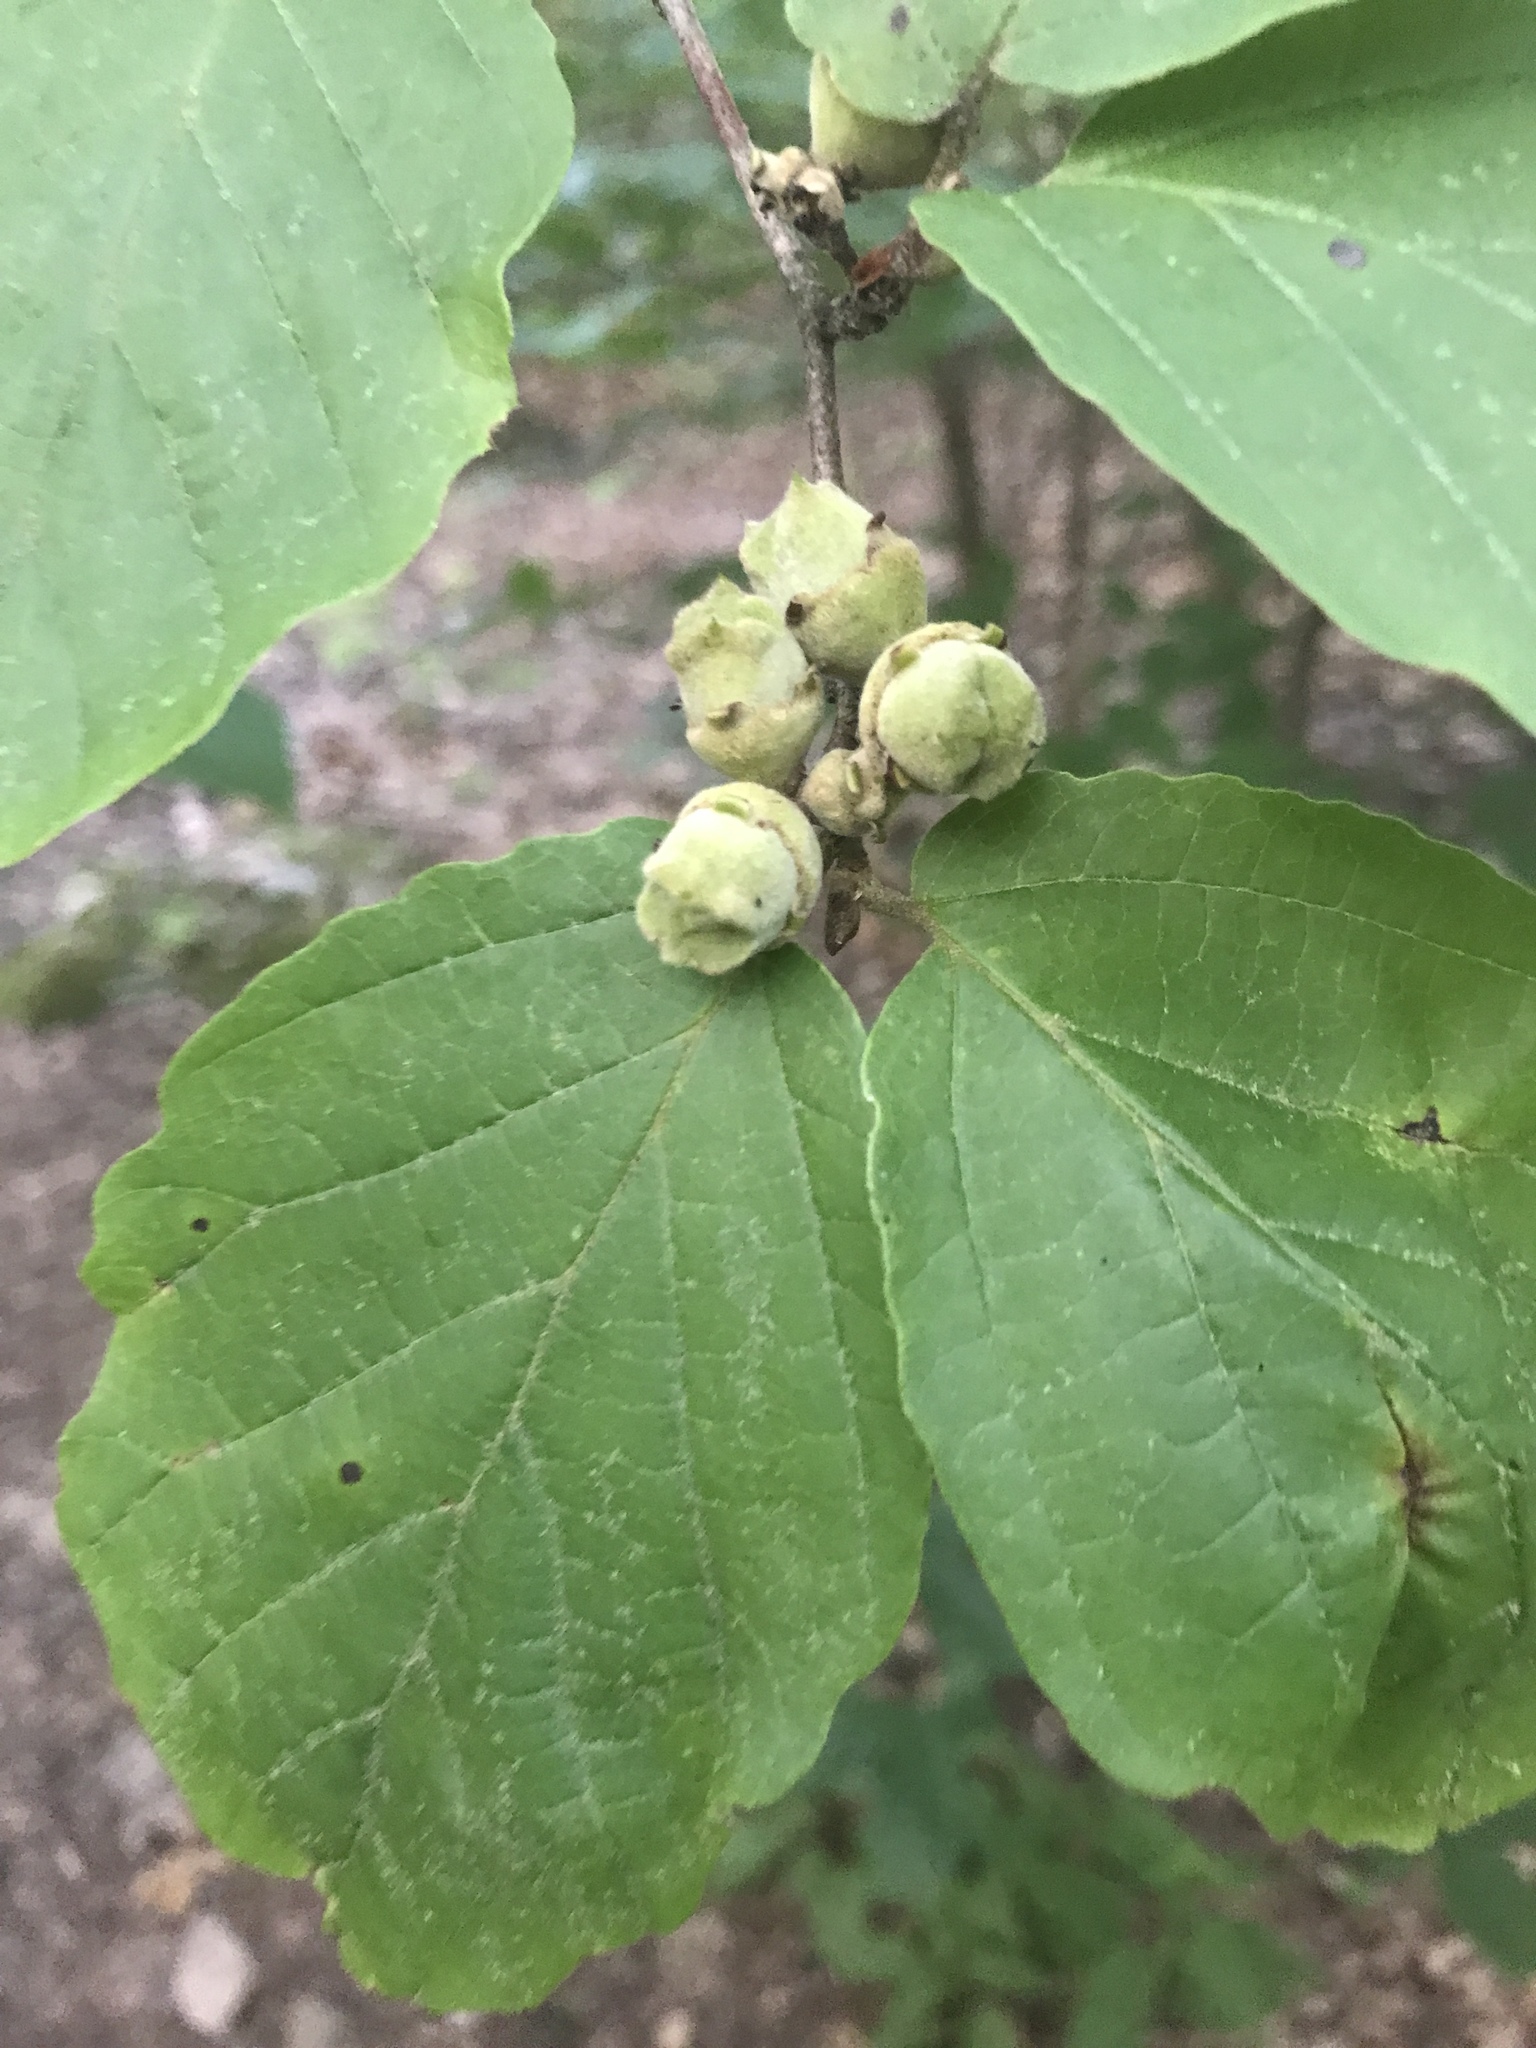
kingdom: Plantae
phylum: Tracheophyta
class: Magnoliopsida
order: Saxifragales
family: Hamamelidaceae
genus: Hamamelis
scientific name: Hamamelis virginiana
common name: Witch-hazel
